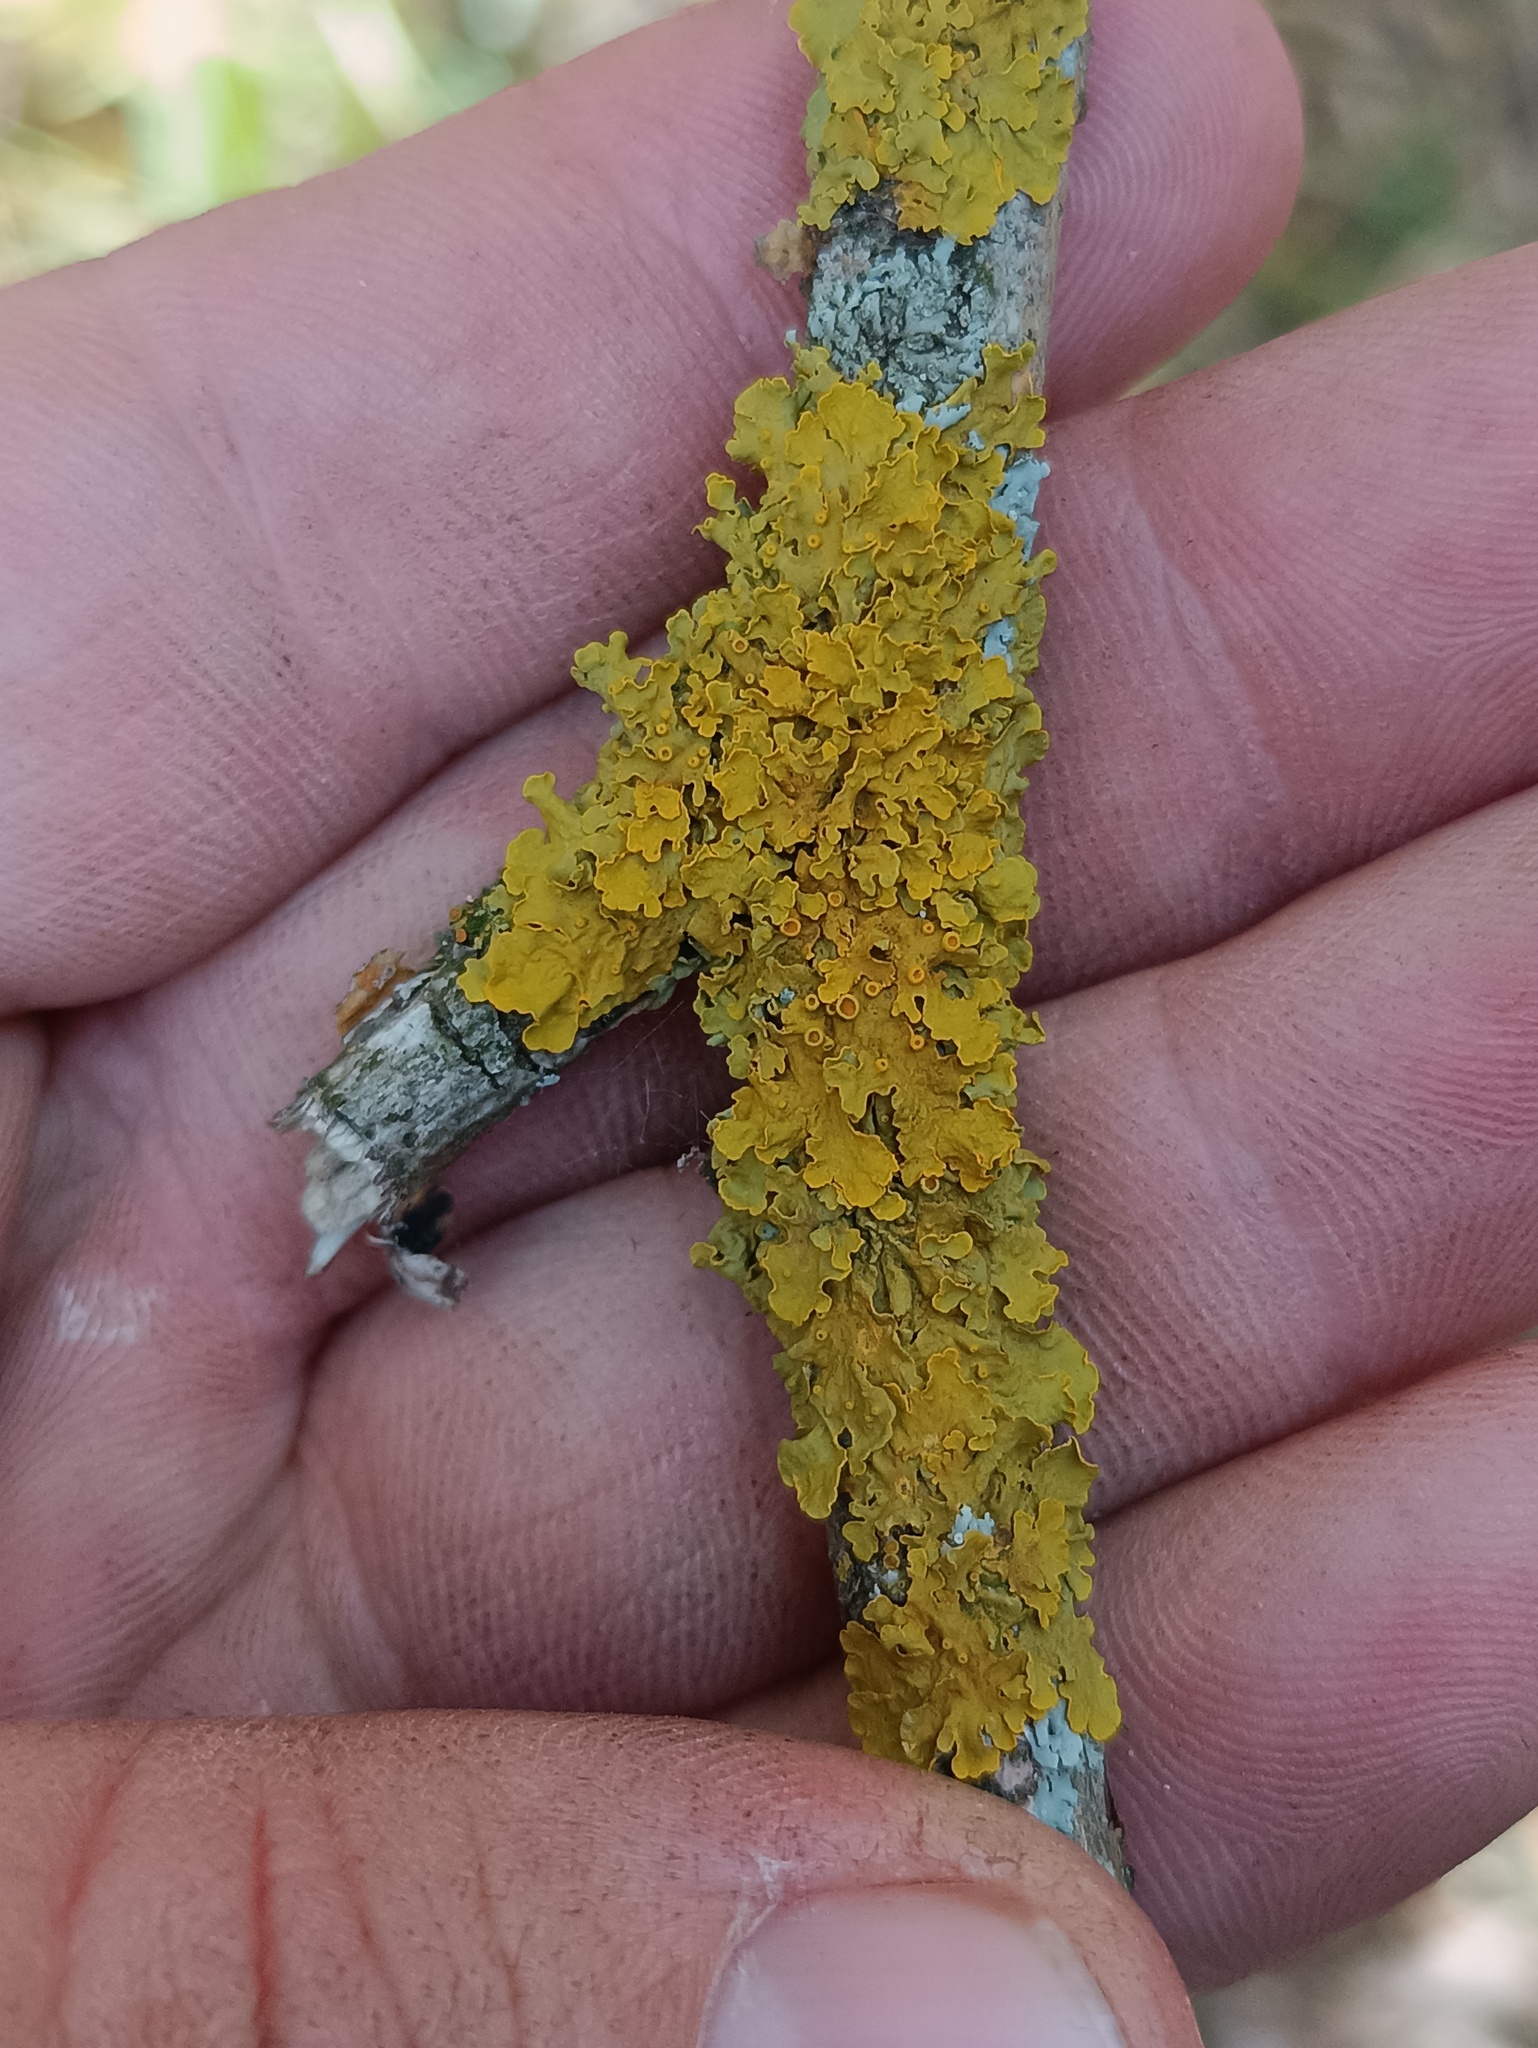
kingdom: Fungi
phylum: Ascomycota
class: Lecanoromycetes
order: Teloschistales
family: Teloschistaceae
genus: Xanthoria
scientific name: Xanthoria parietina
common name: Common orange lichen
